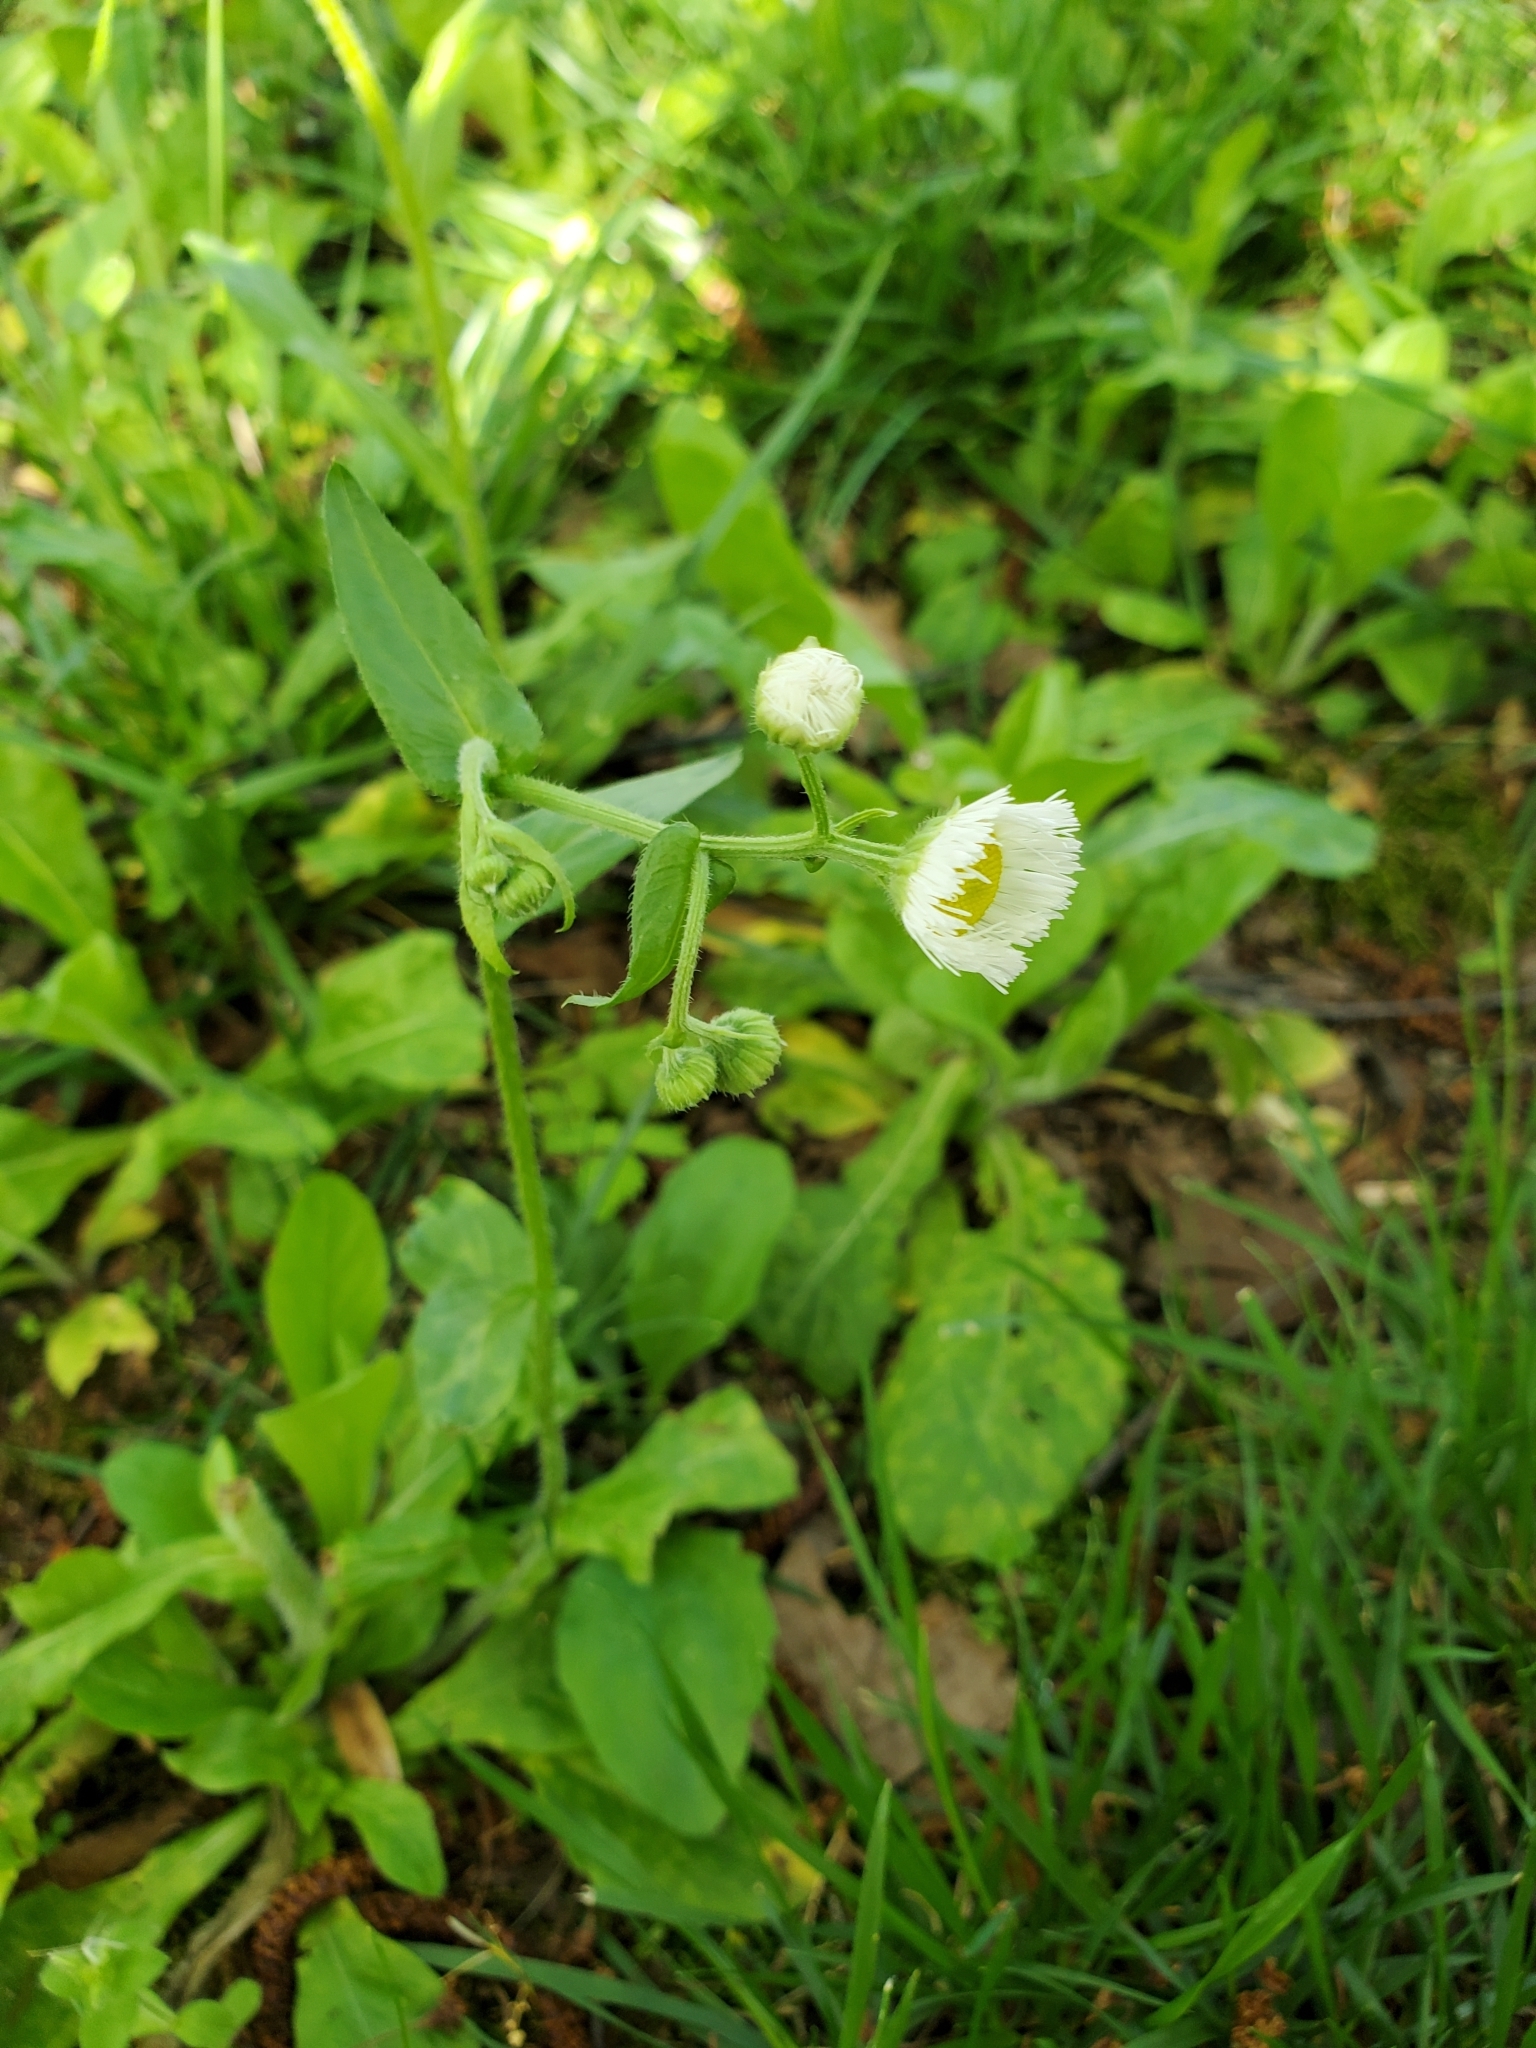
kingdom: Plantae
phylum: Tracheophyta
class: Magnoliopsida
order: Asterales
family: Asteraceae
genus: Erigeron
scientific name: Erigeron philadelphicus
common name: Robin's-plantain
